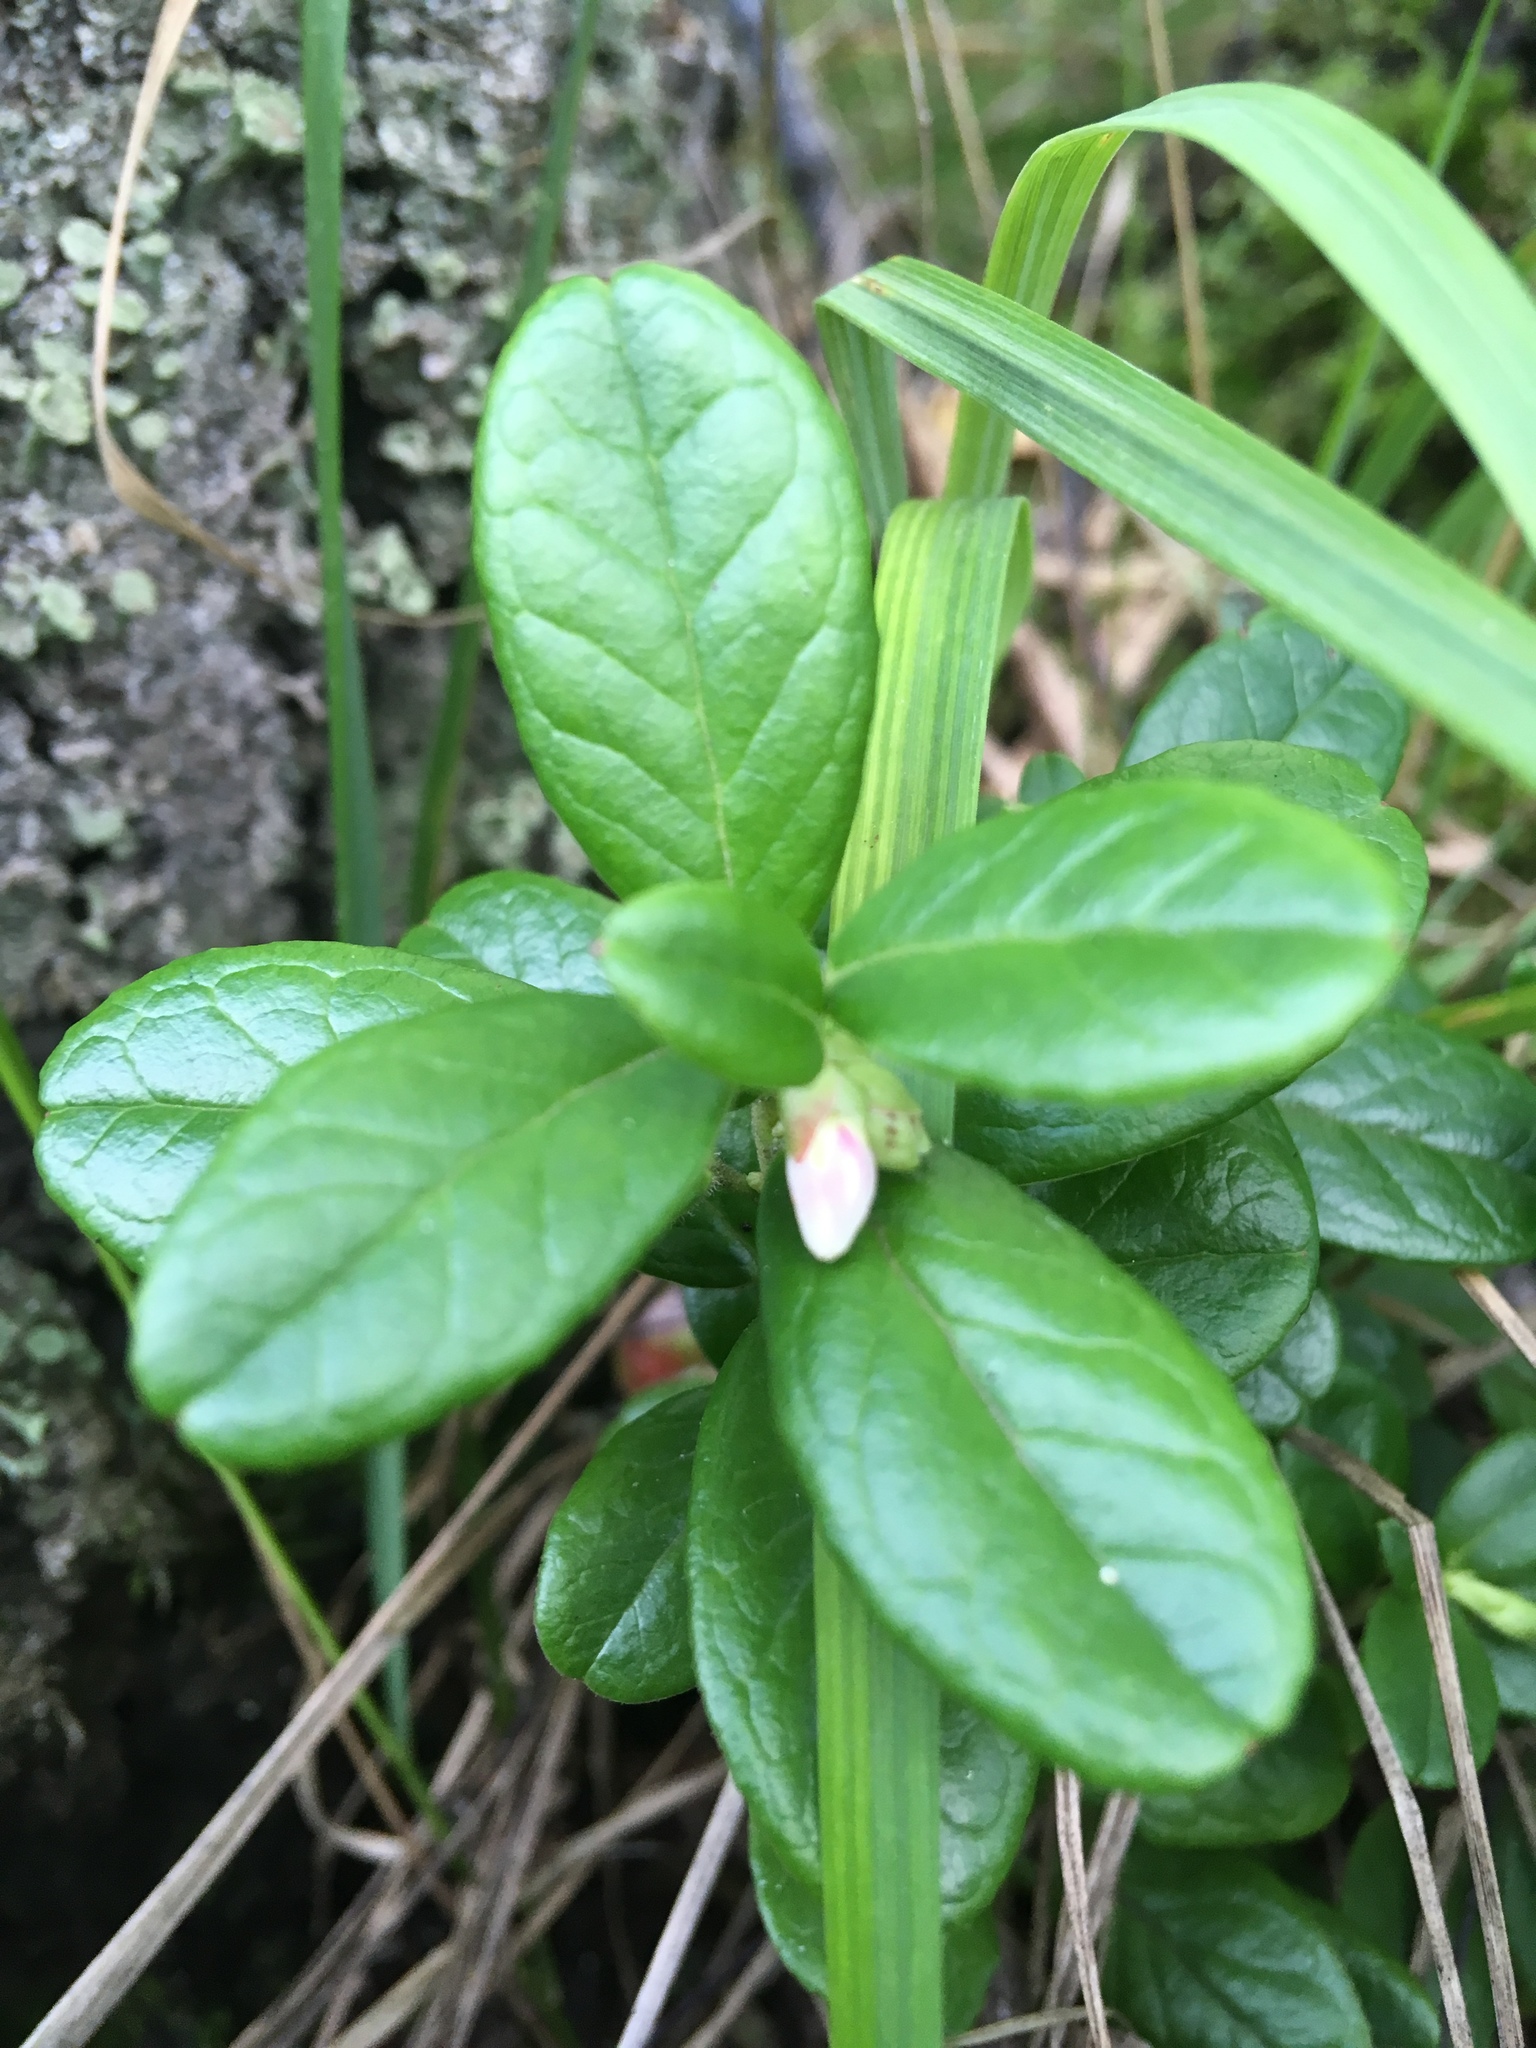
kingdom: Plantae
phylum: Tracheophyta
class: Magnoliopsida
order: Ericales
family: Ericaceae
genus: Vaccinium
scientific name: Vaccinium vitis-idaea
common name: Cowberry
